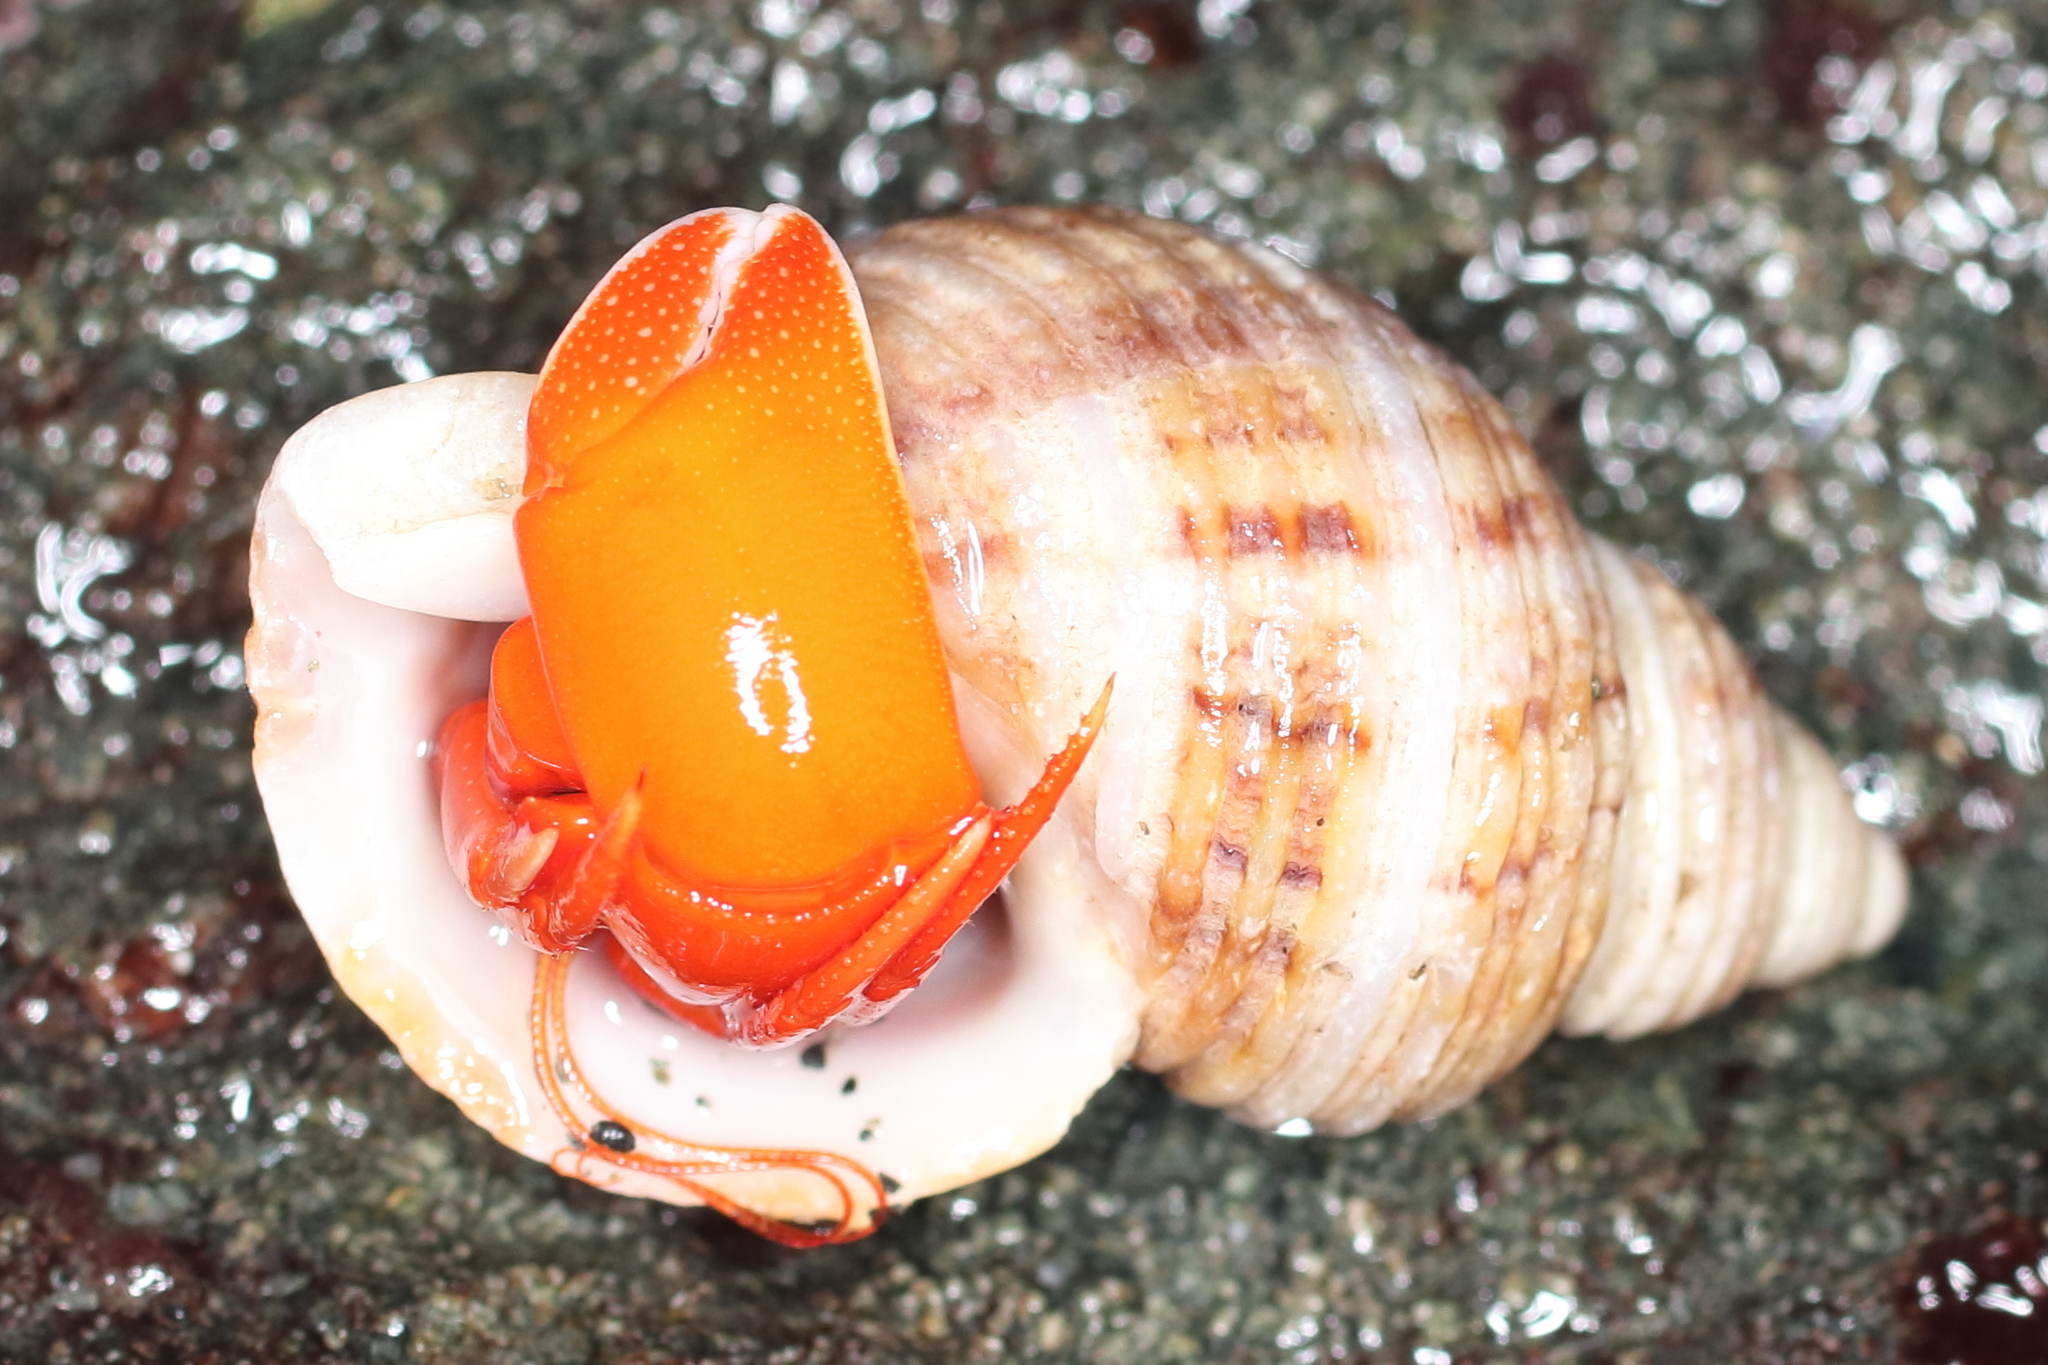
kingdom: Animalia
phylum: Arthropoda
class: Malacostraca
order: Decapoda
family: Paguridae
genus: Elassochirus
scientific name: Elassochirus gilli
